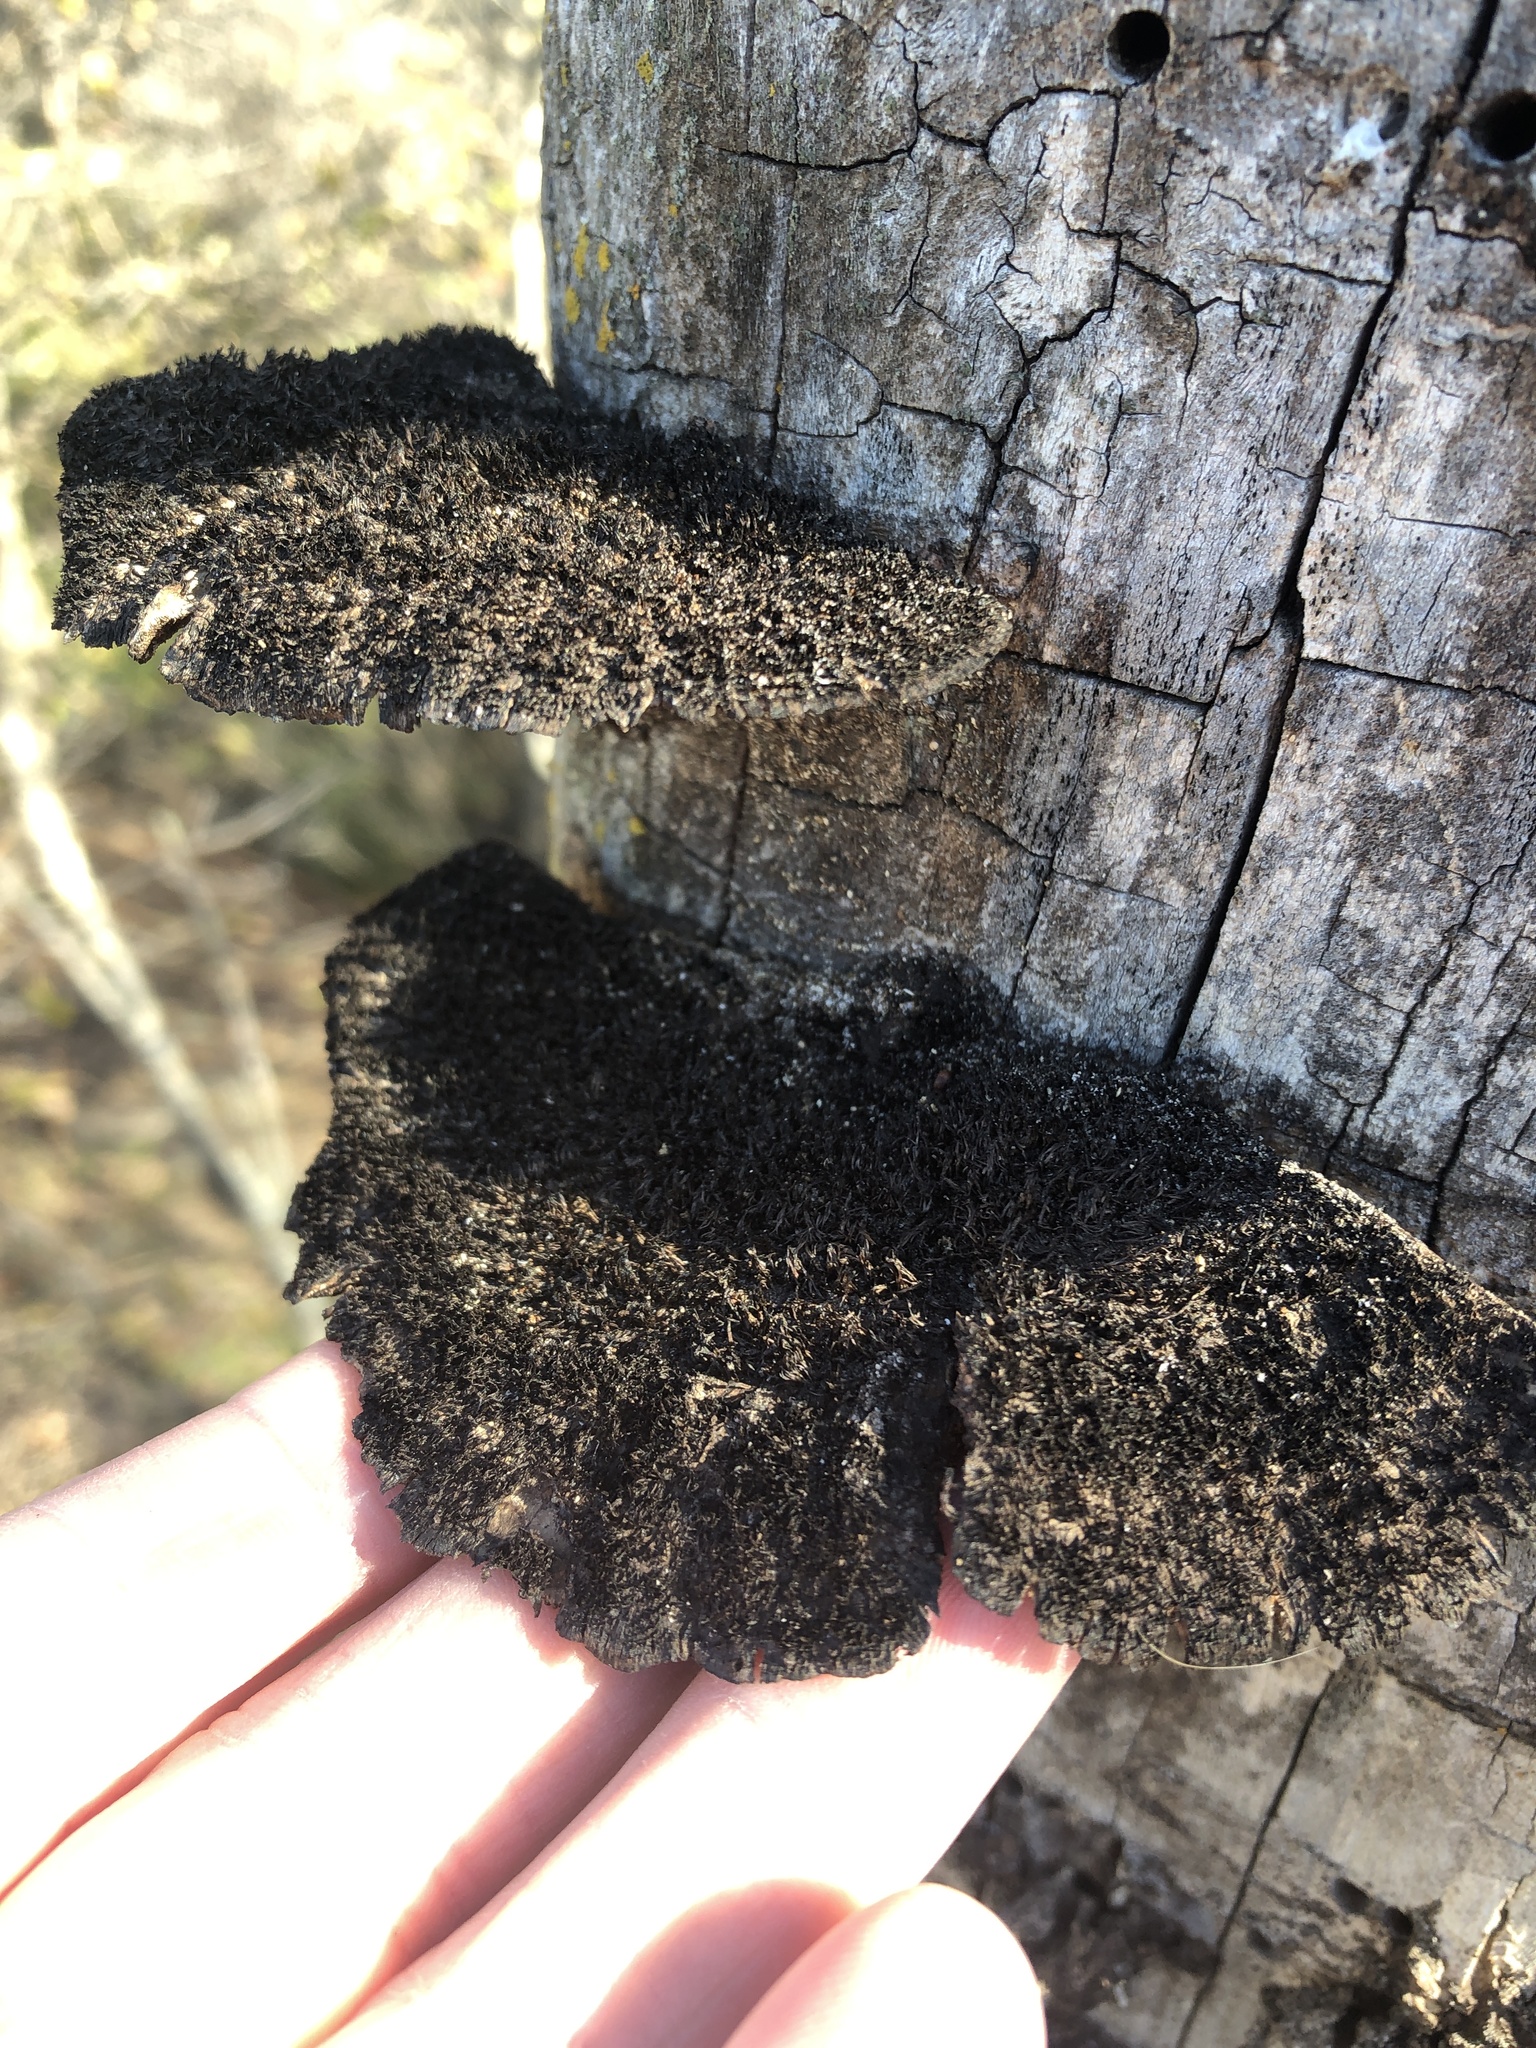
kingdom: Fungi
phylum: Basidiomycota
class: Agaricomycetes
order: Polyporales
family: Cerrenaceae
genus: Cerrena
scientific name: Cerrena hydnoides
